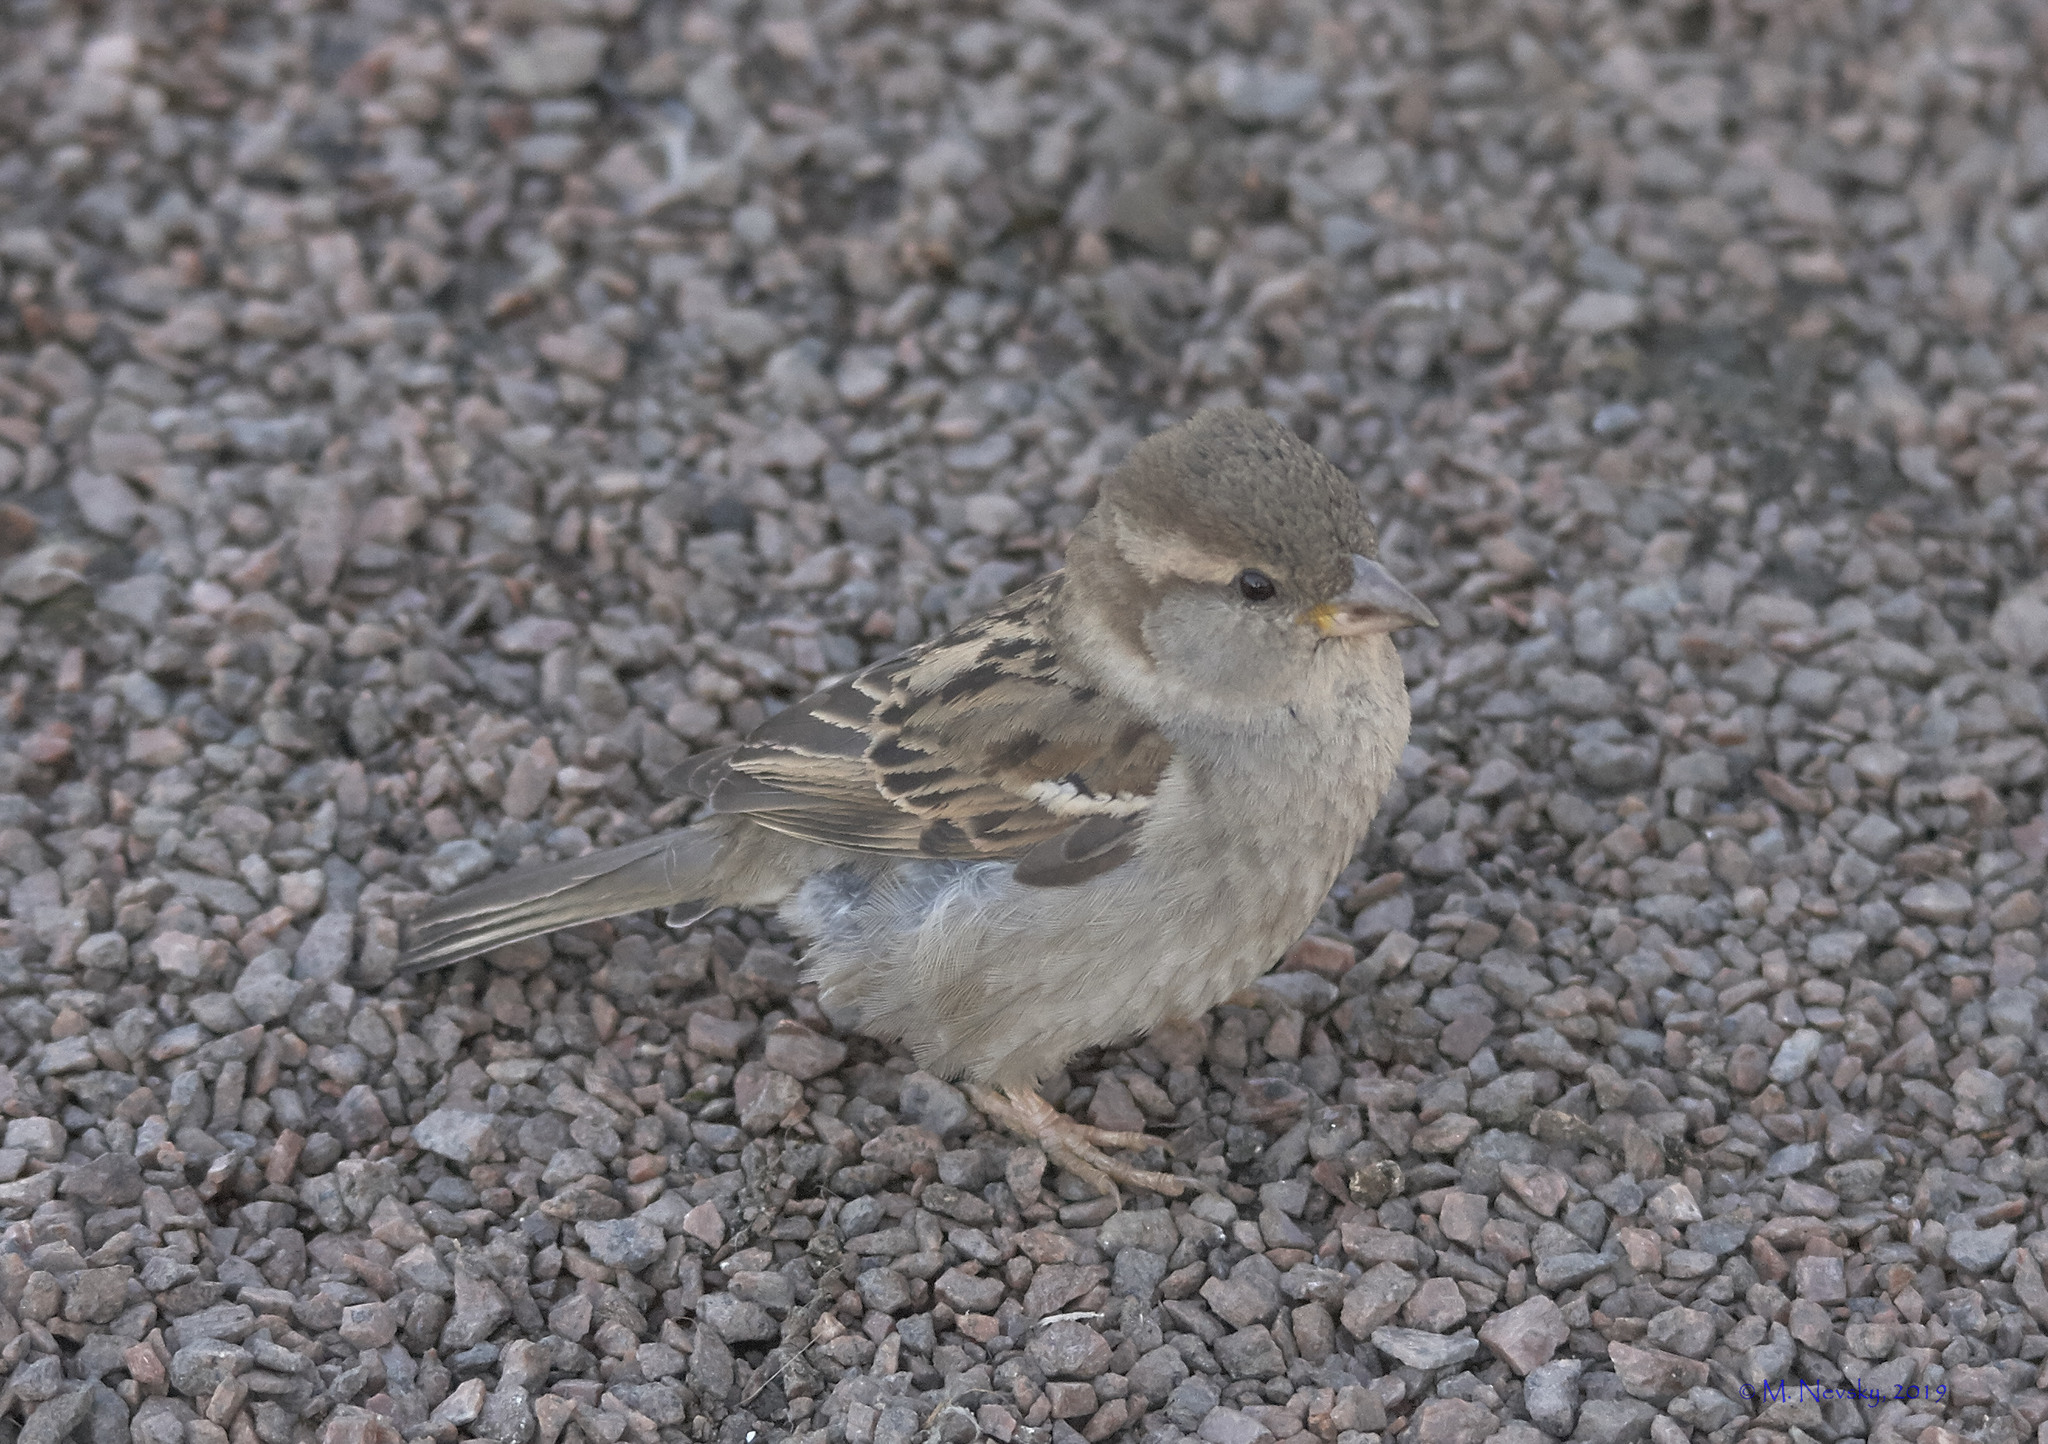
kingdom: Animalia
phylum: Chordata
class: Aves
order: Passeriformes
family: Passeridae
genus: Passer
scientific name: Passer domesticus
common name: House sparrow
